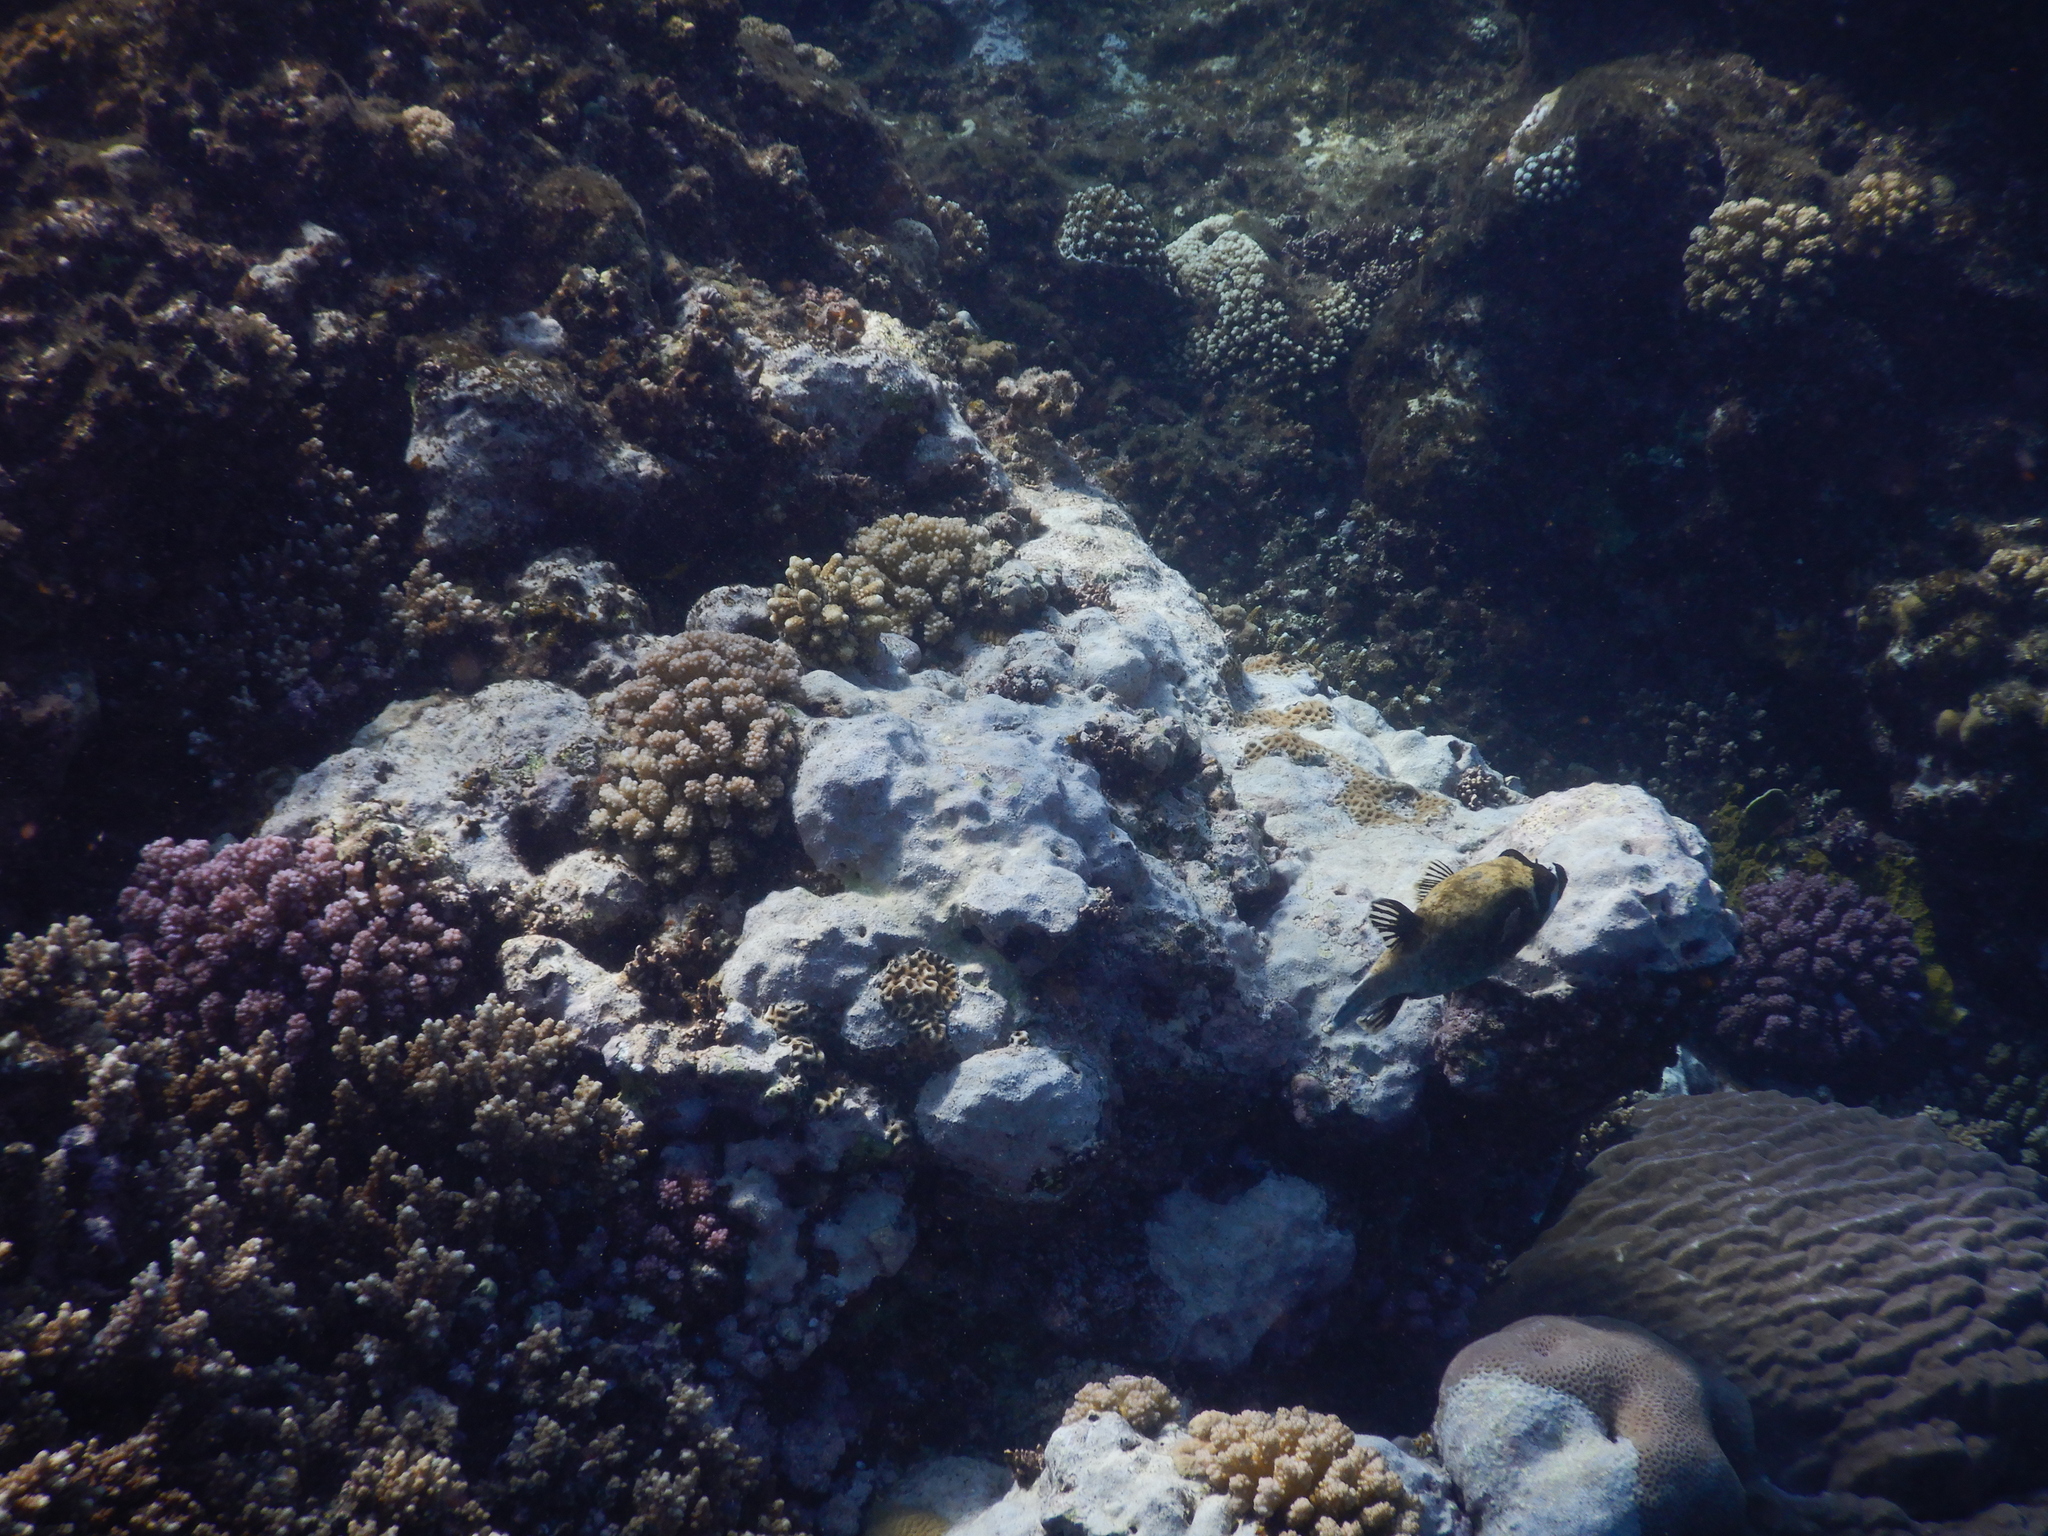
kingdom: Animalia
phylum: Chordata
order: Tetraodontiformes
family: Tetraodontidae
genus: Arothron
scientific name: Arothron diadematus
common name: Masked puffer
